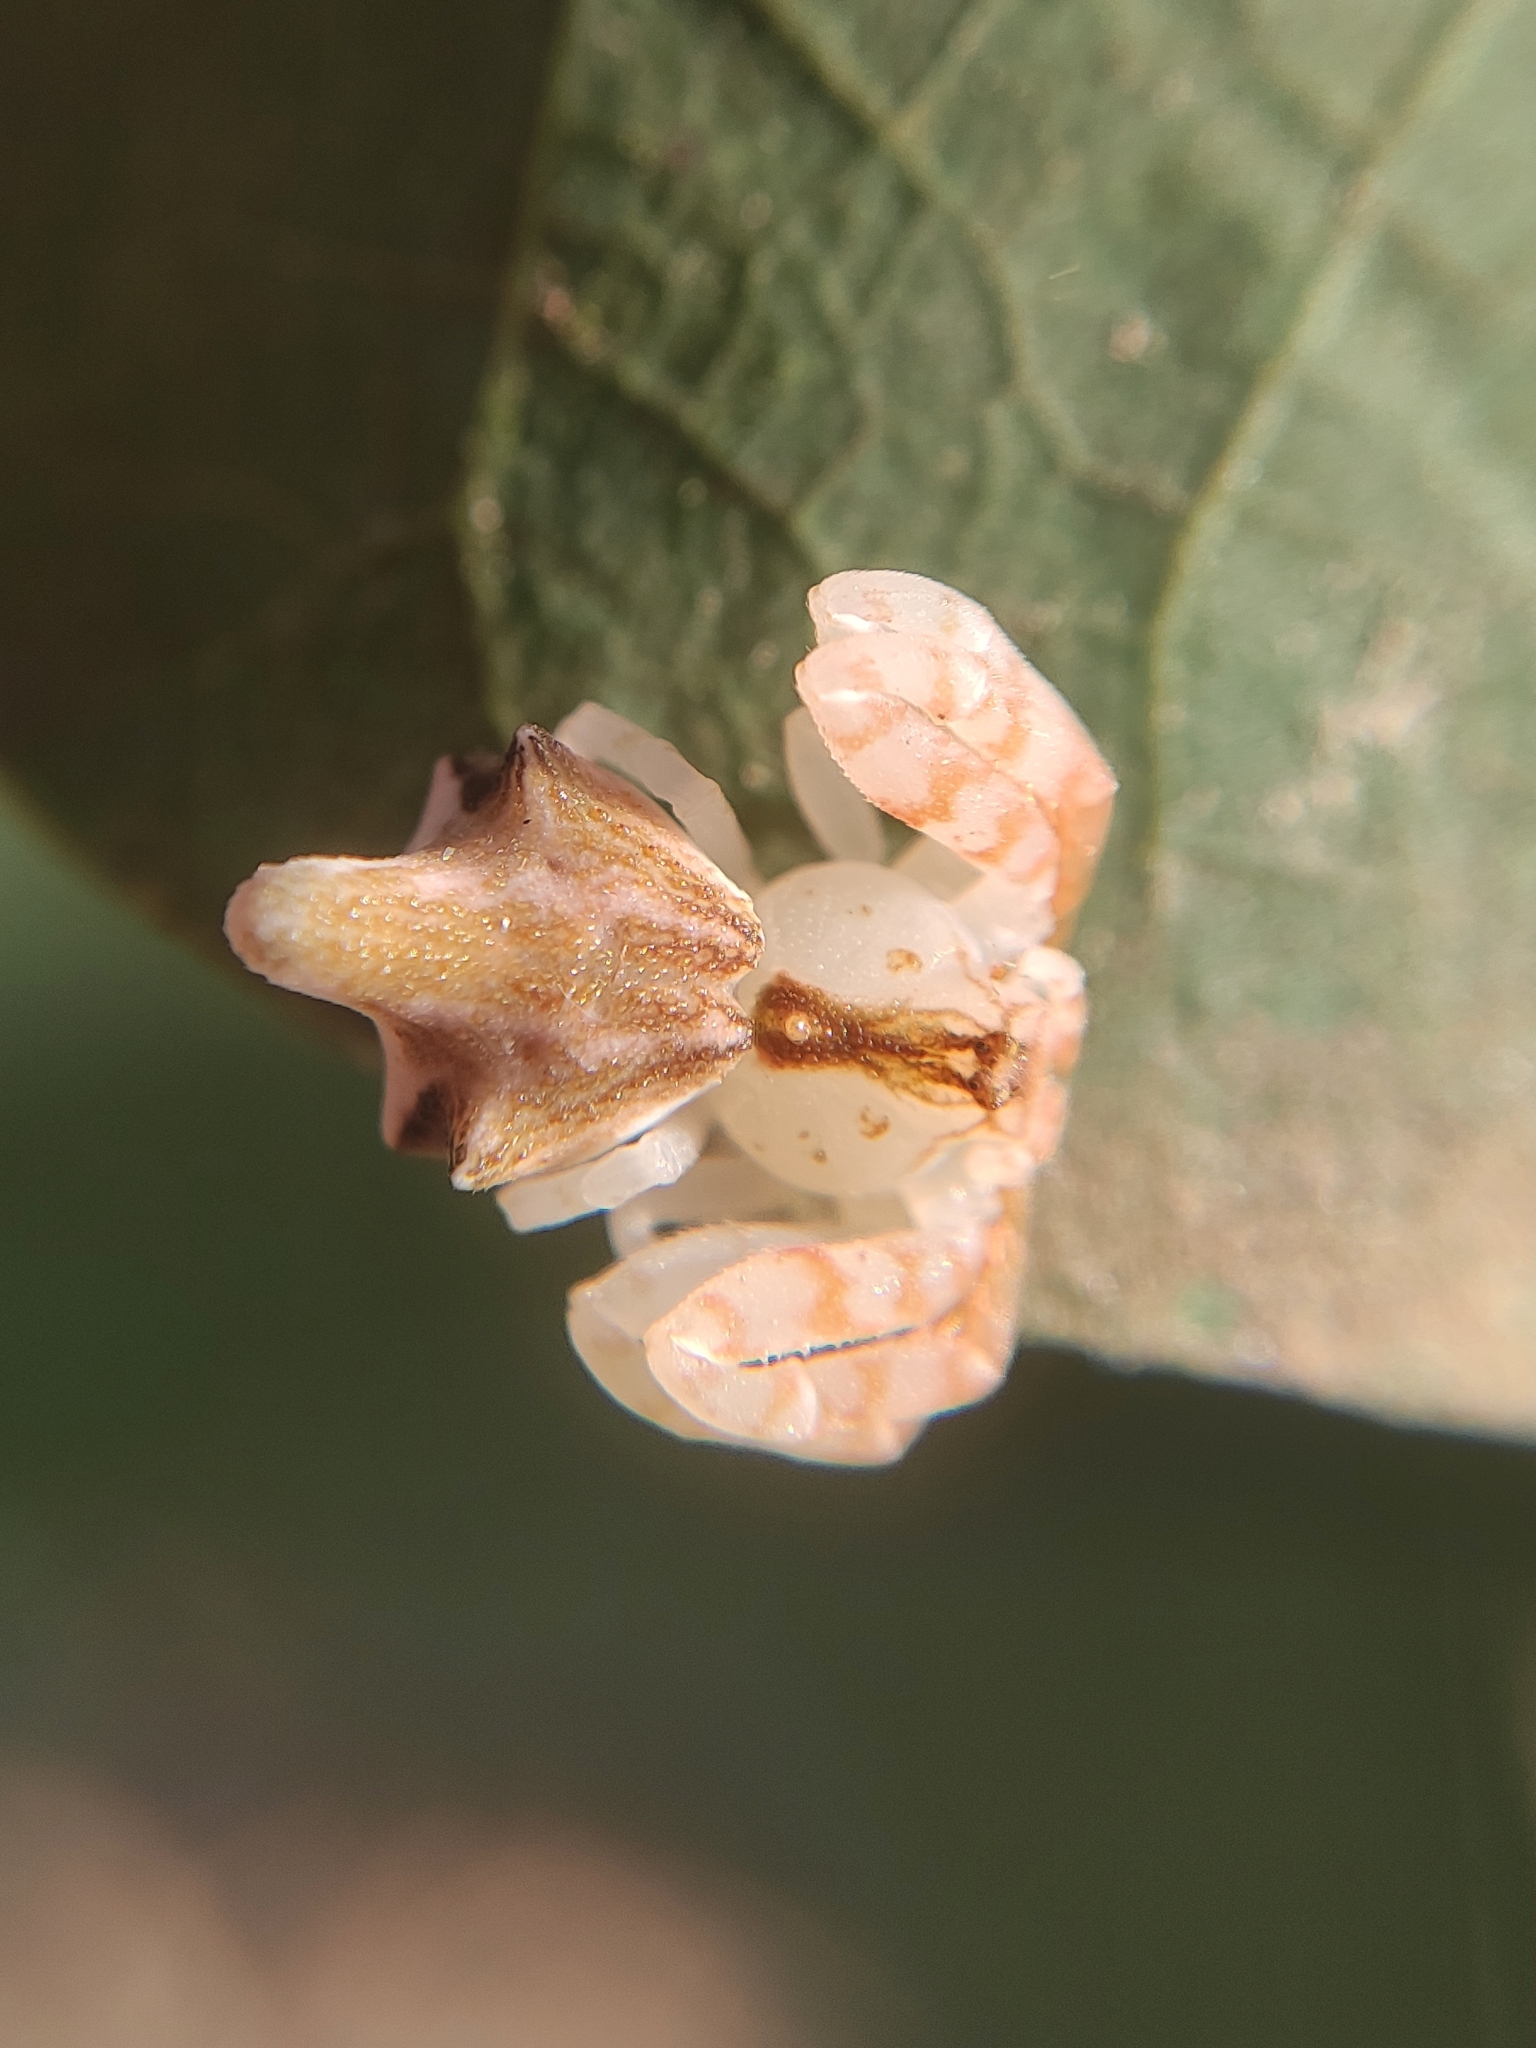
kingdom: Animalia
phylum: Arthropoda
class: Arachnida
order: Araneae
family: Thomisidae
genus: Epicadus
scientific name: Epicadus rubripes
